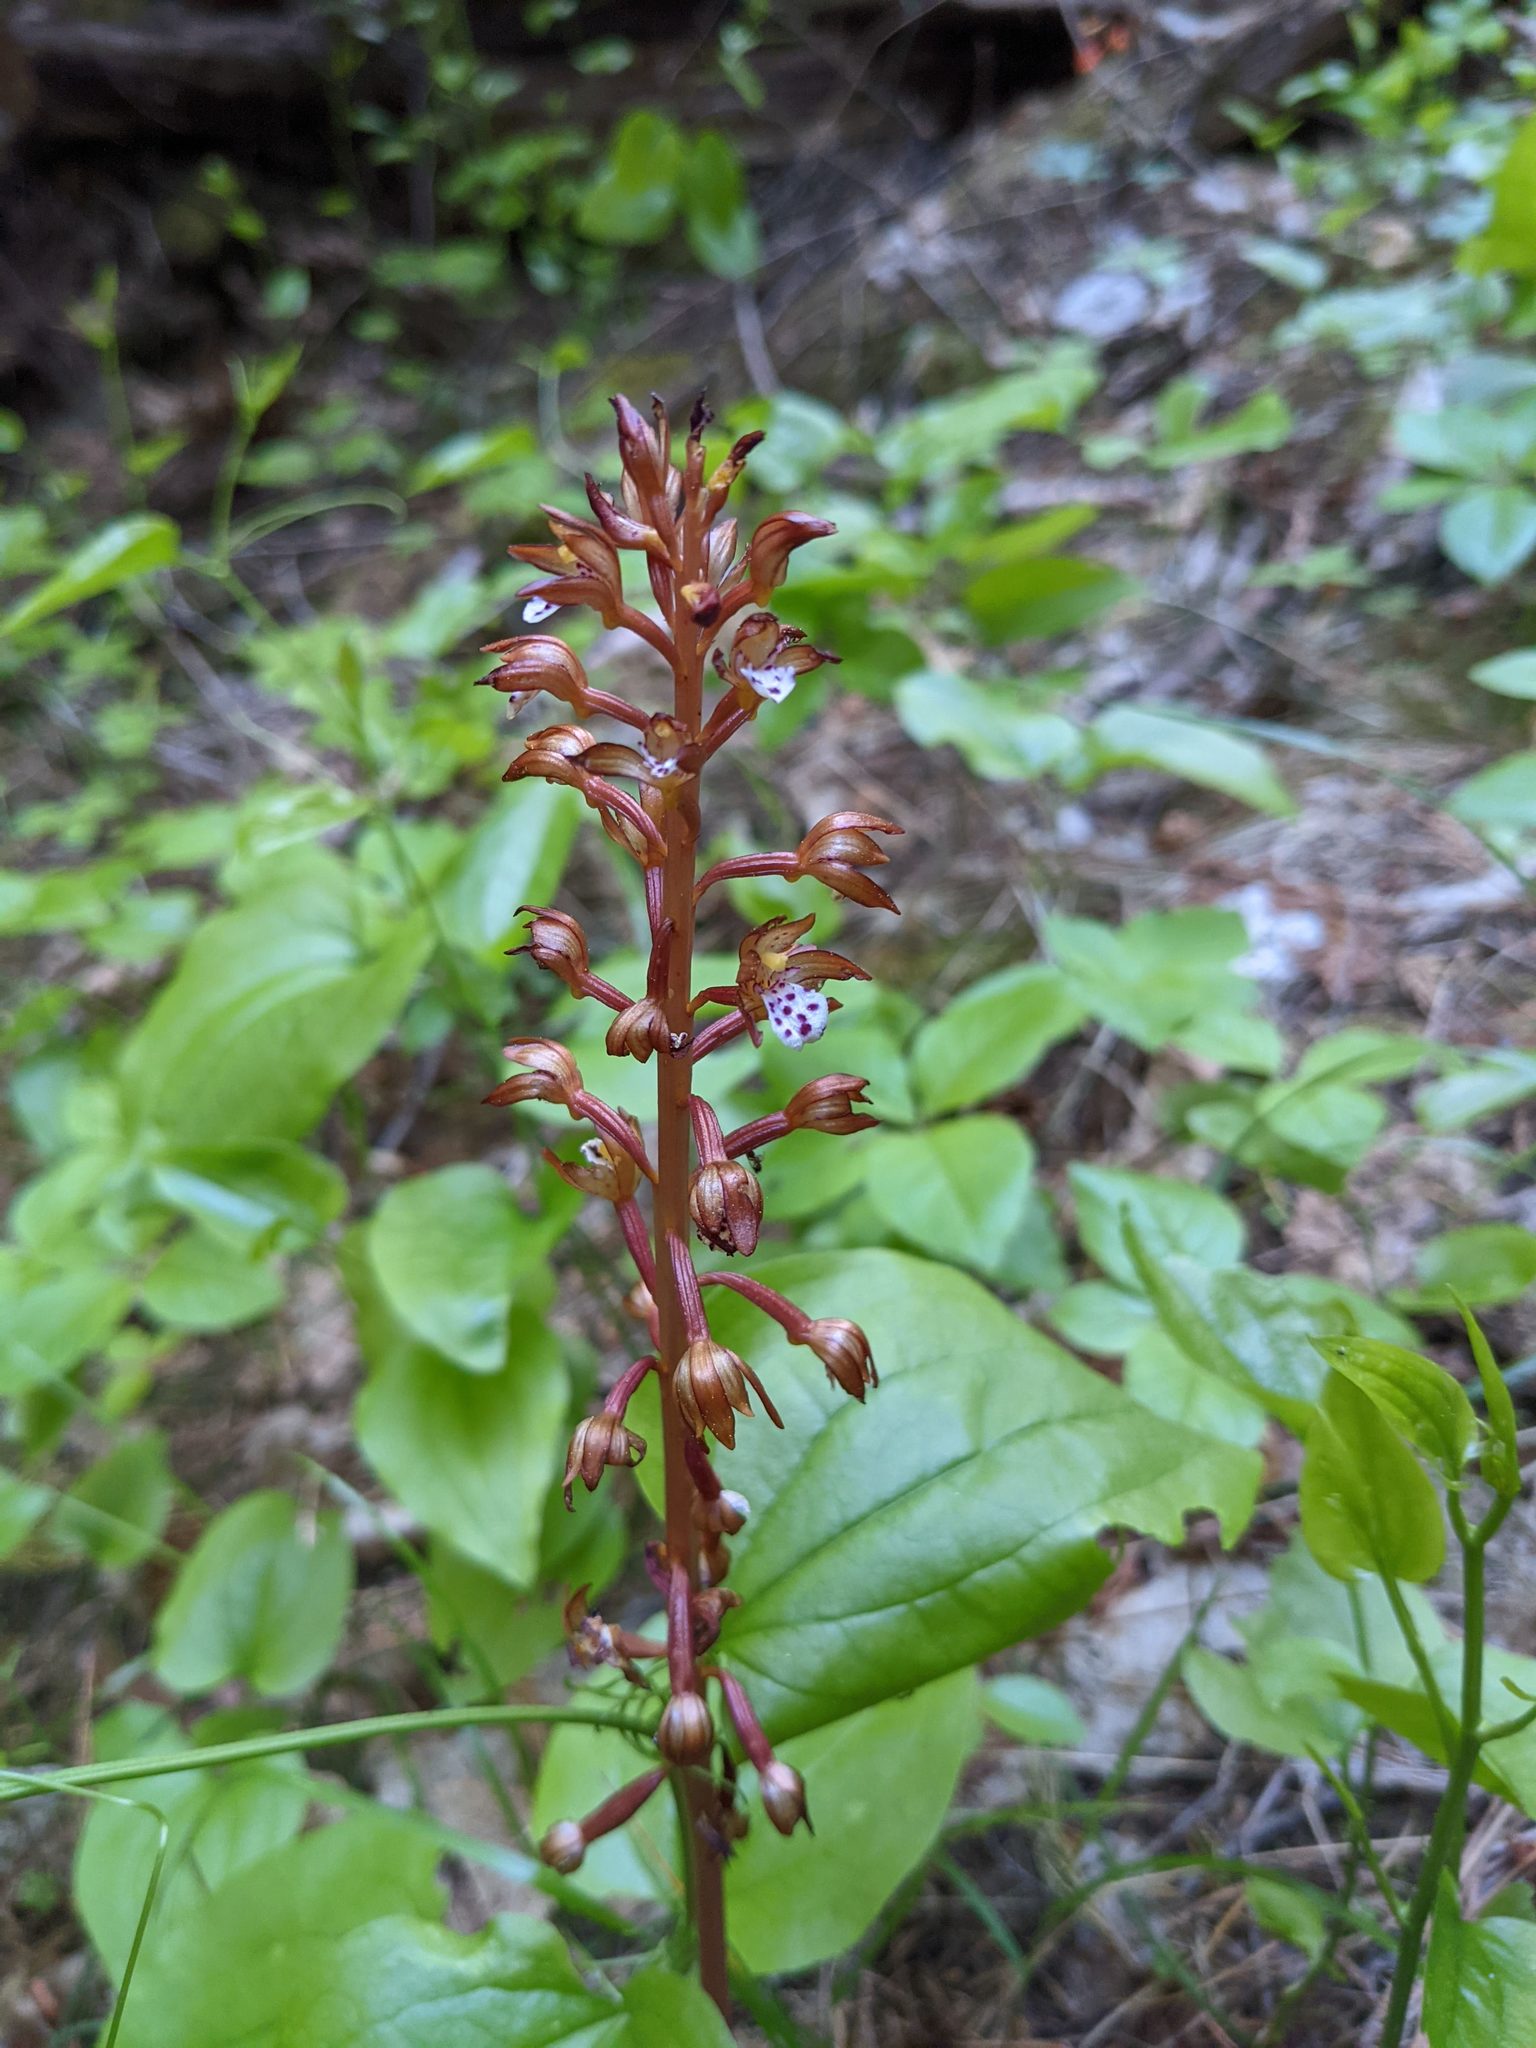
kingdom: Plantae
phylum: Tracheophyta
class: Liliopsida
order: Asparagales
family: Orchidaceae
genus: Corallorhiza
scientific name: Corallorhiza maculata
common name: Spotted coralroot
